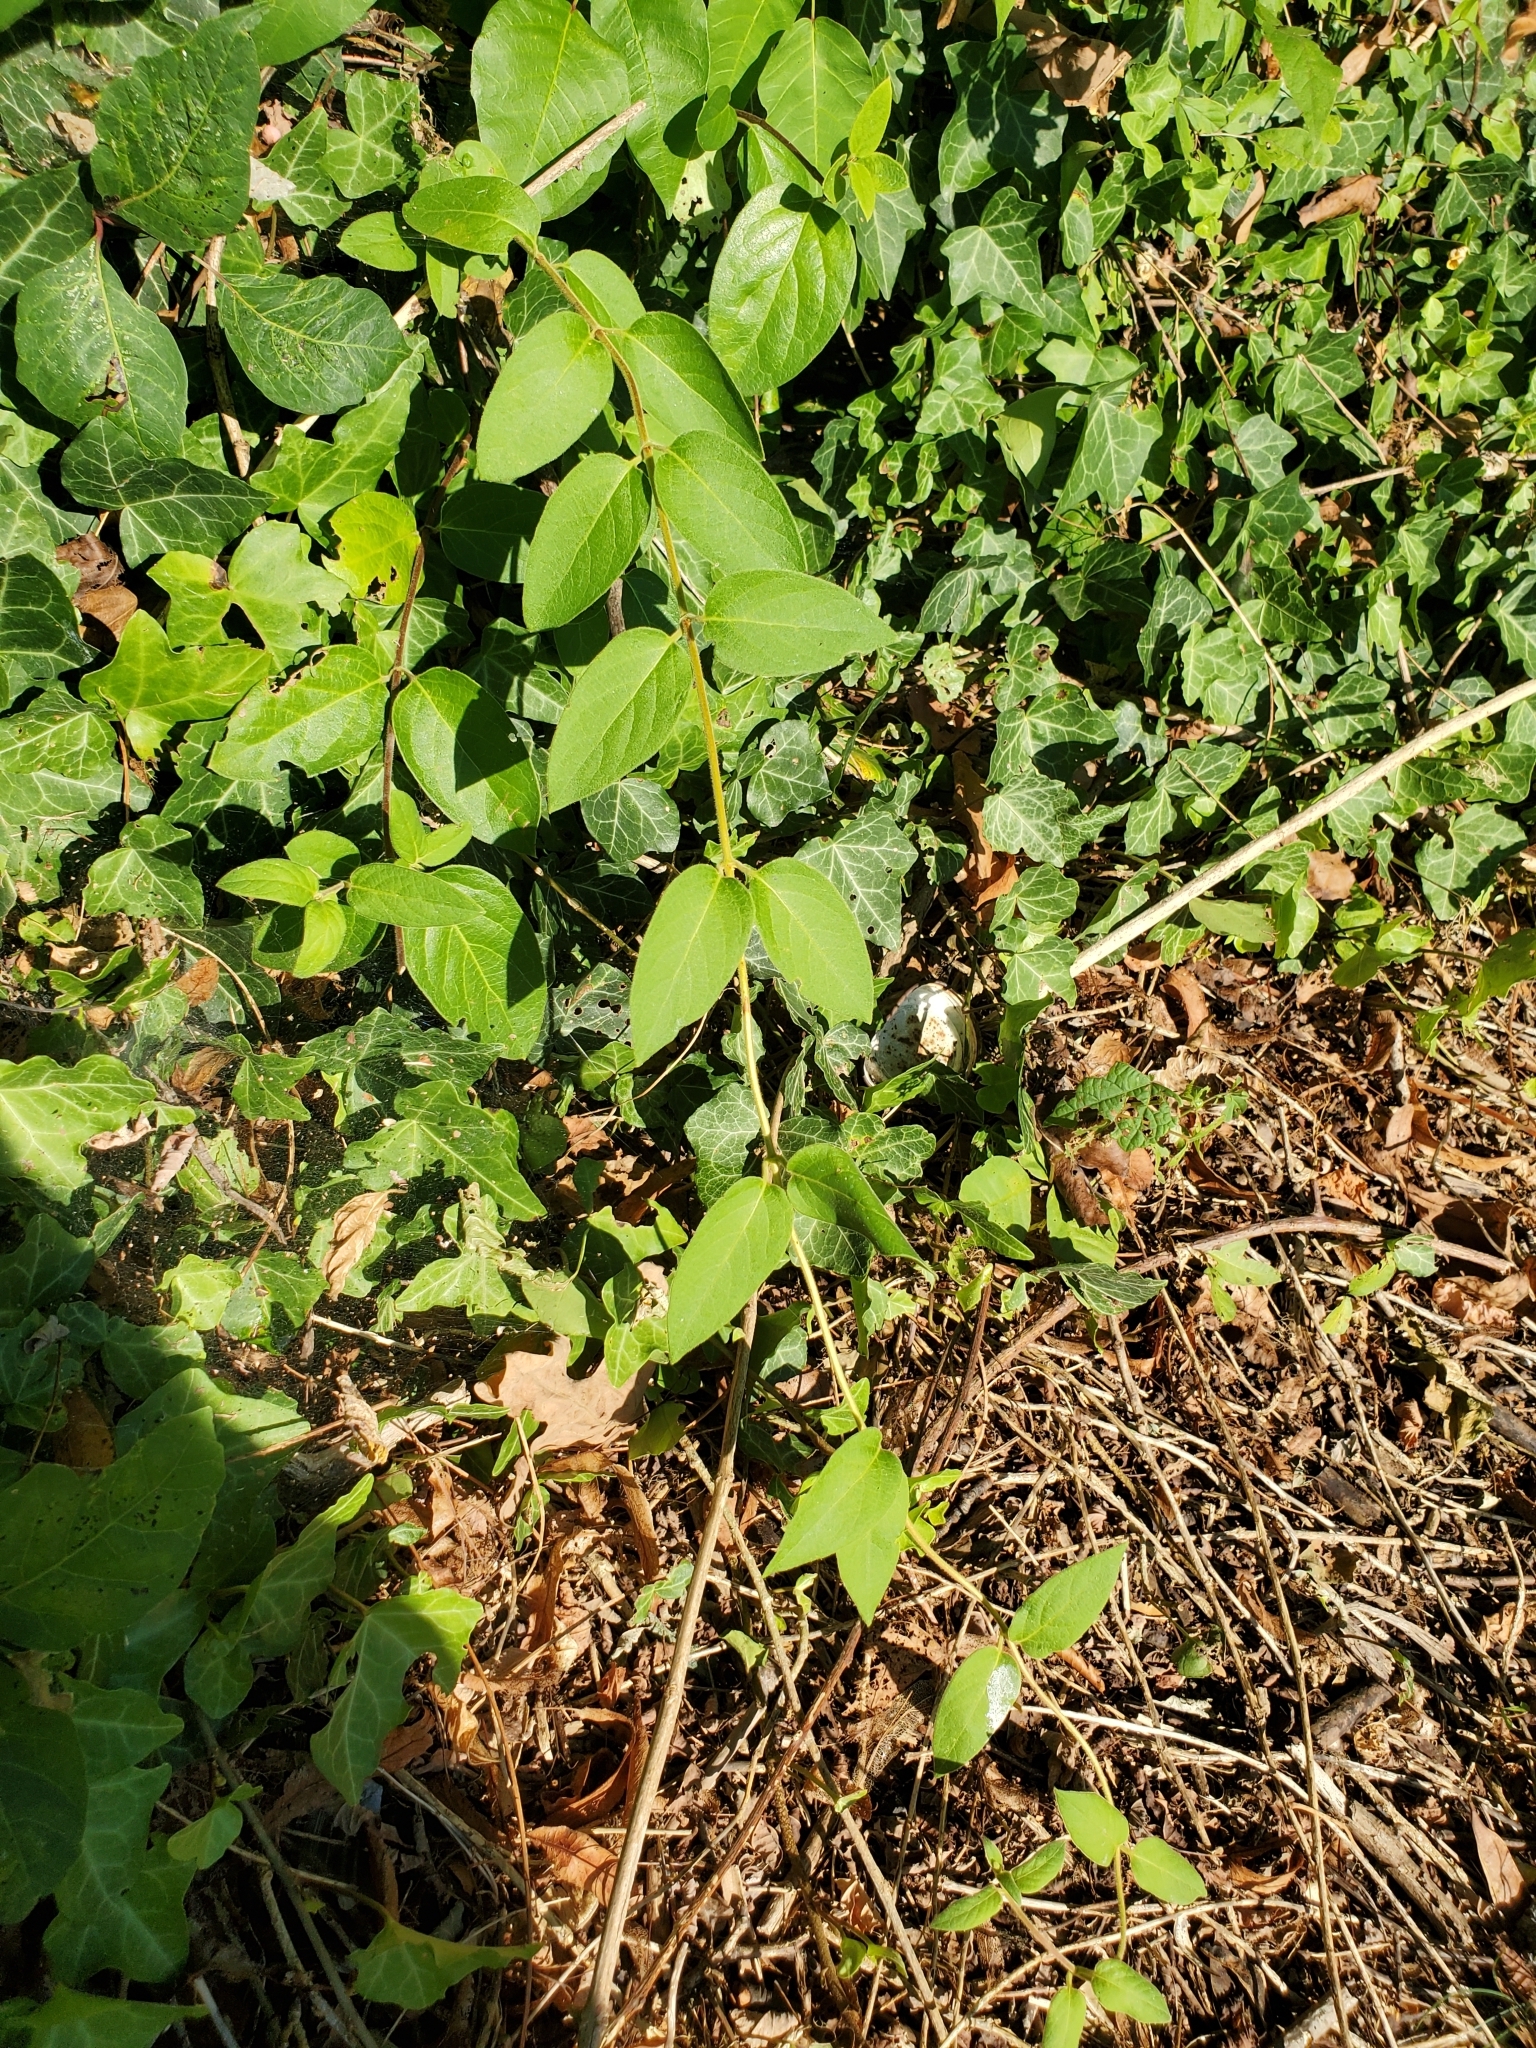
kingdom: Plantae
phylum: Tracheophyta
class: Magnoliopsida
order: Dipsacales
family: Caprifoliaceae
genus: Lonicera
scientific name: Lonicera japonica
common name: Japanese honeysuckle
